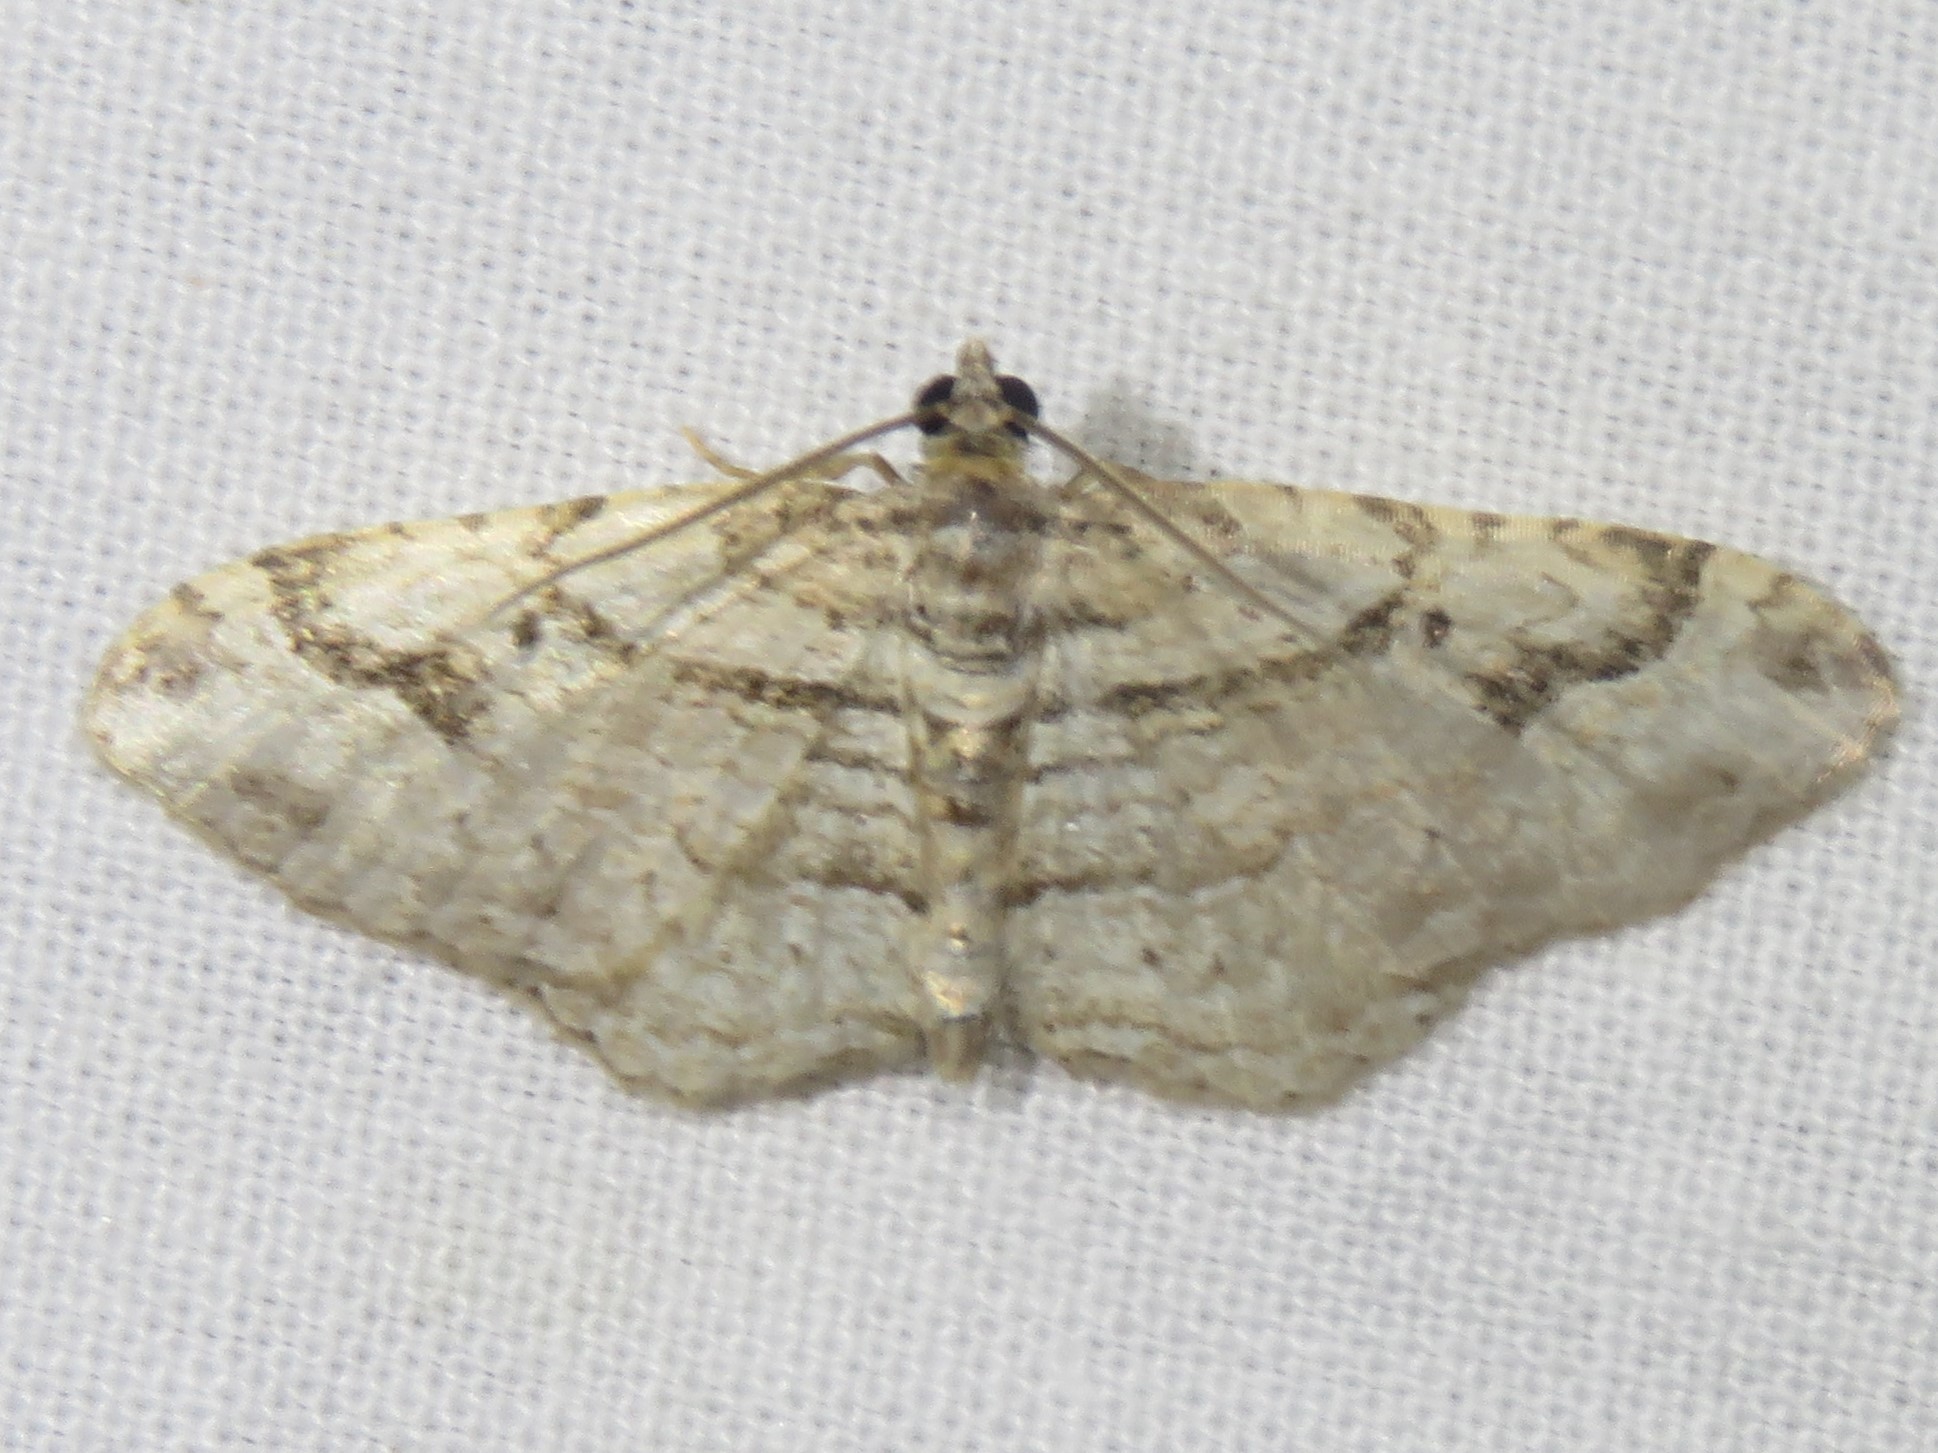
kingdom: Animalia
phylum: Arthropoda
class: Insecta
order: Lepidoptera
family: Geometridae
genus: Costaconvexa
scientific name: Costaconvexa centrostrigaria
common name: Bent-line carpet
